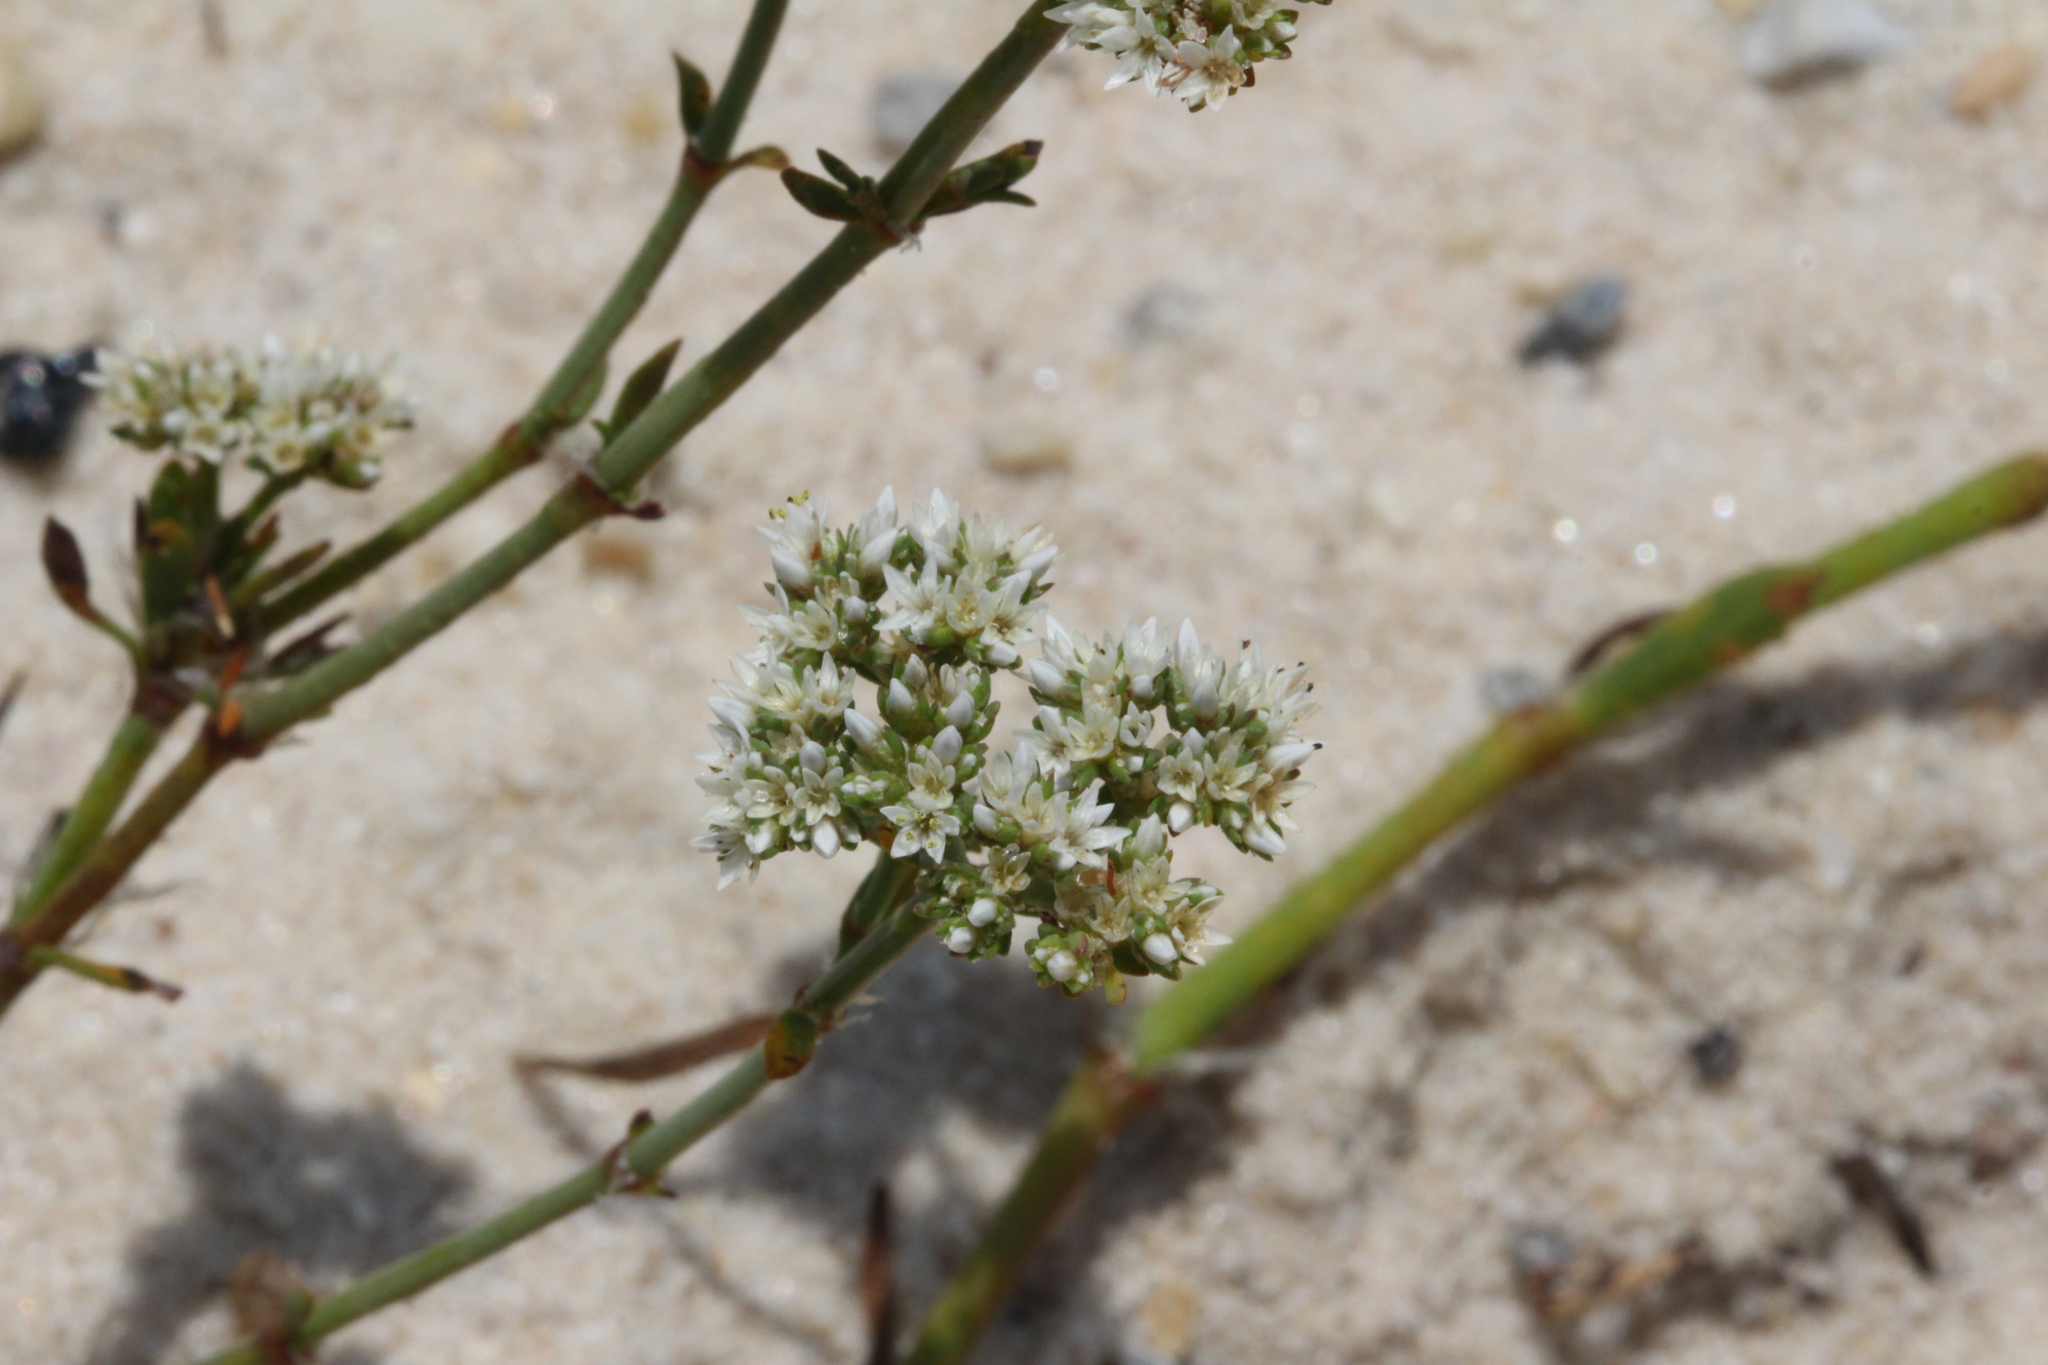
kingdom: Plantae
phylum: Tracheophyta
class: Magnoliopsida
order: Caryophyllales
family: Caryophyllaceae
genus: Paronychia
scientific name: Paronychia erecta
